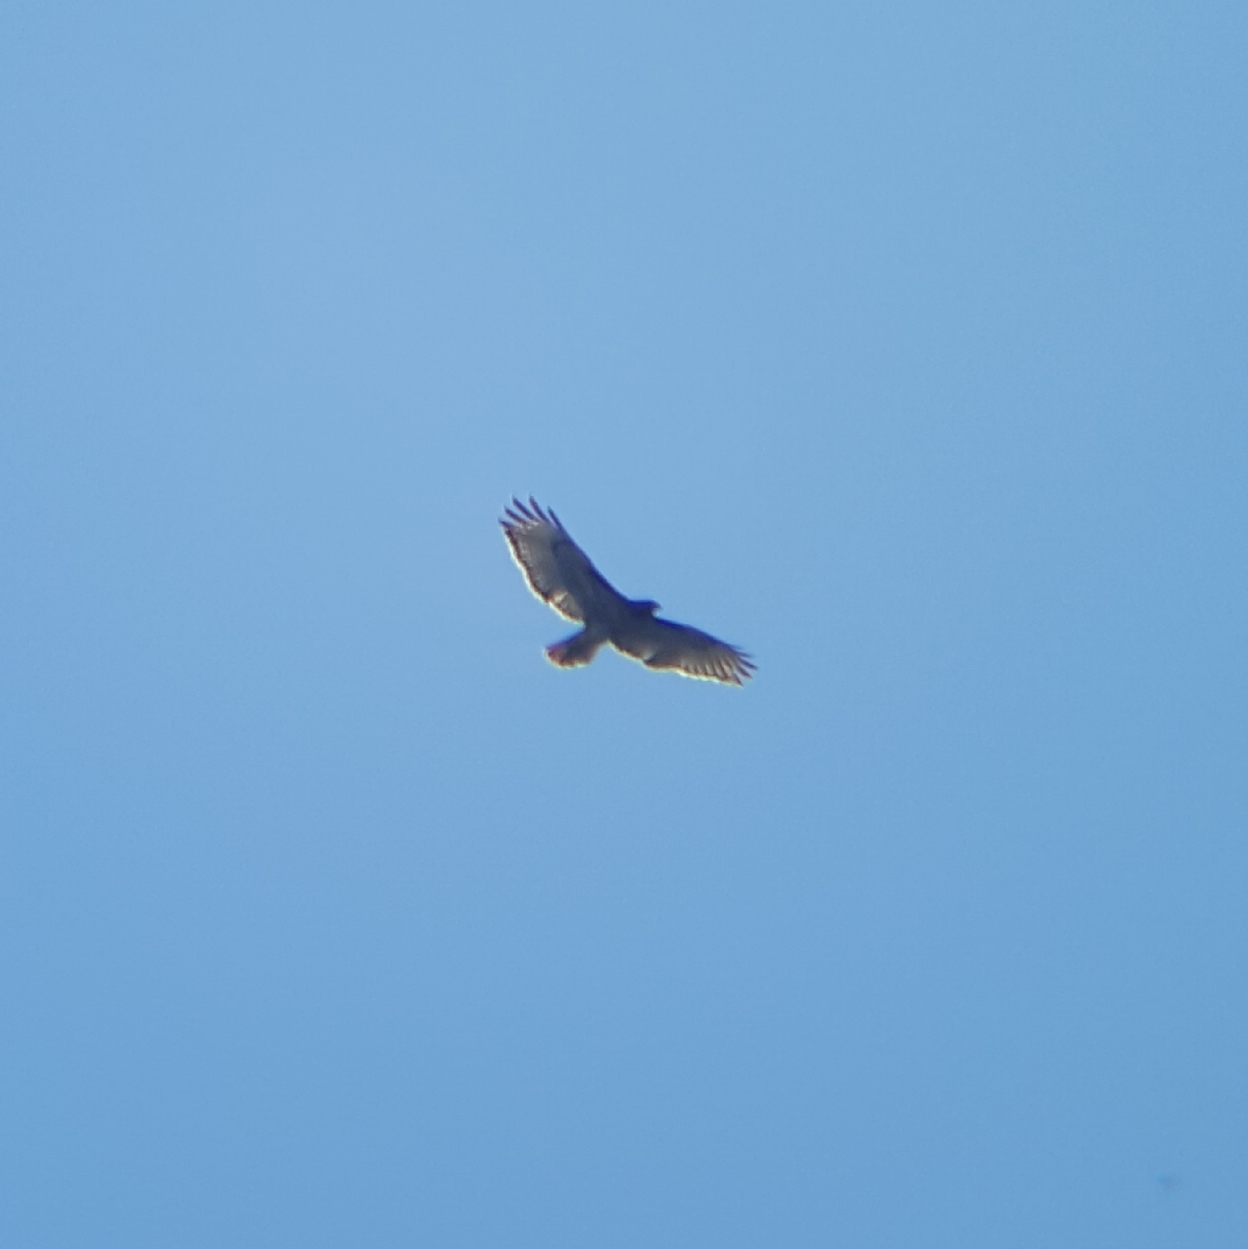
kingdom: Animalia
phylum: Chordata
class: Aves
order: Accipitriformes
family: Accipitridae
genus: Buteo
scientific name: Buteo jamaicensis
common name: Red-tailed hawk
